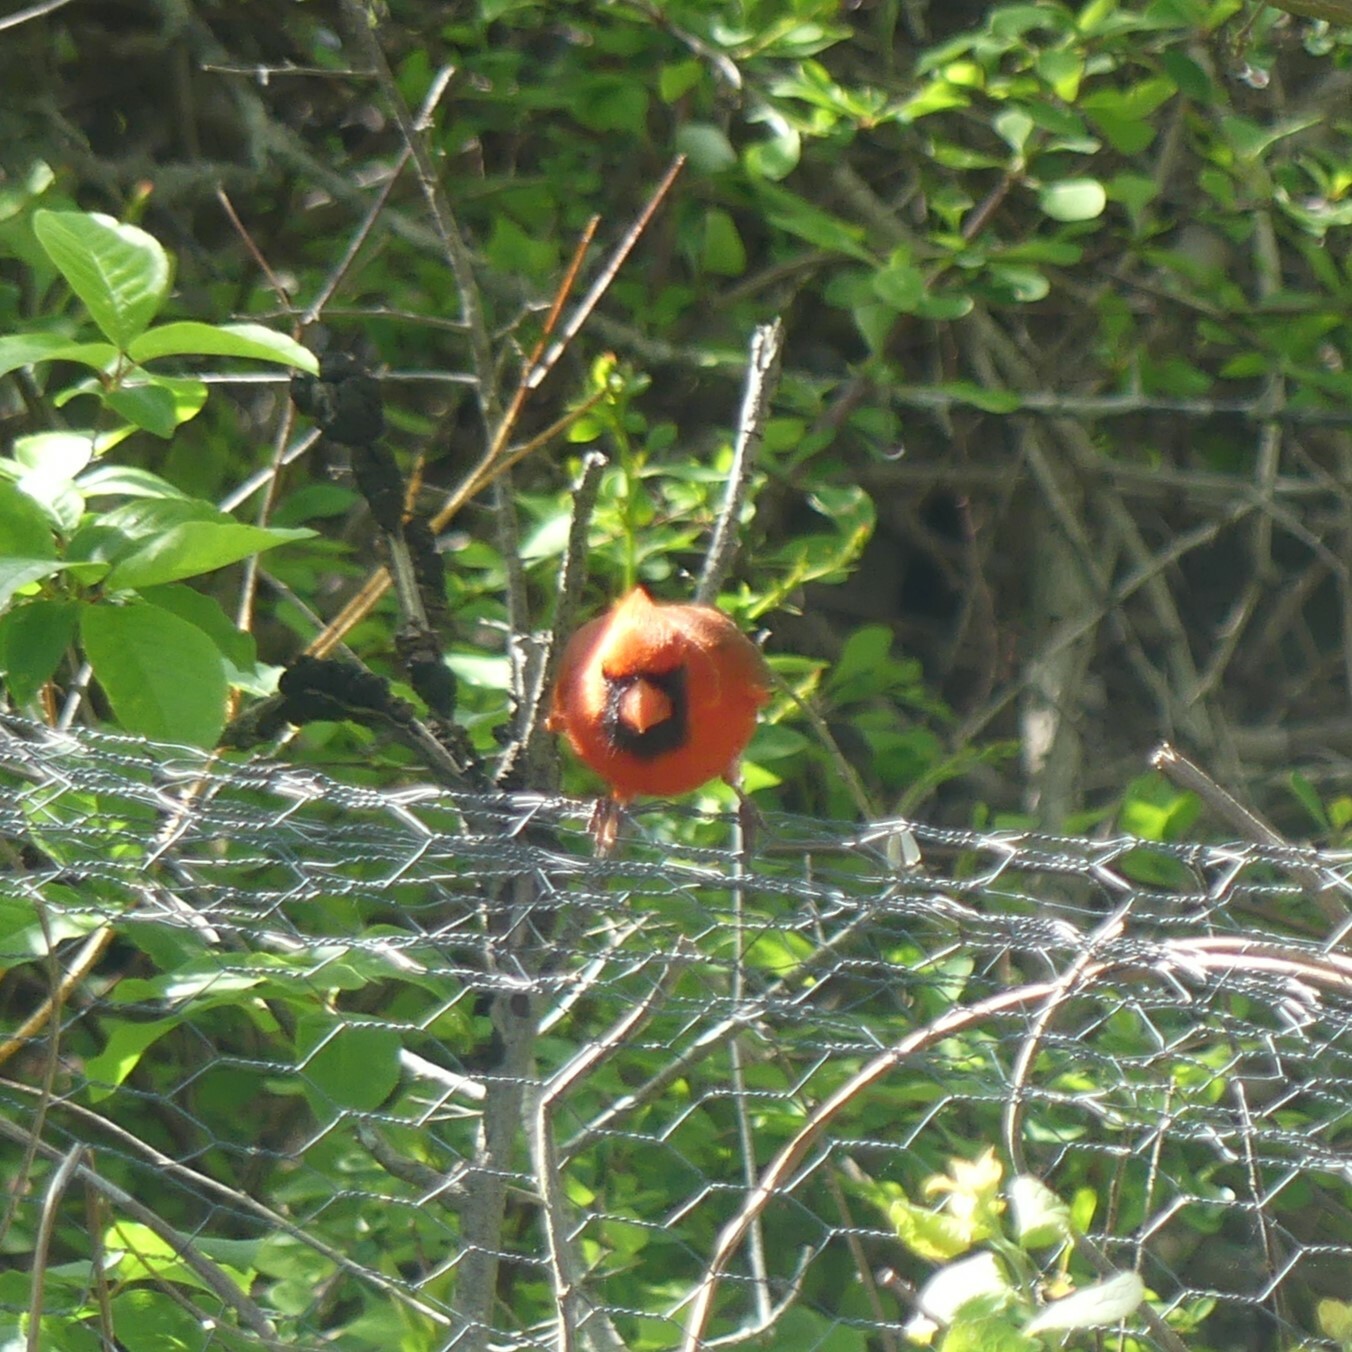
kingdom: Animalia
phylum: Chordata
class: Aves
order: Passeriformes
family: Cardinalidae
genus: Cardinalis
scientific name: Cardinalis cardinalis
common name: Northern cardinal
